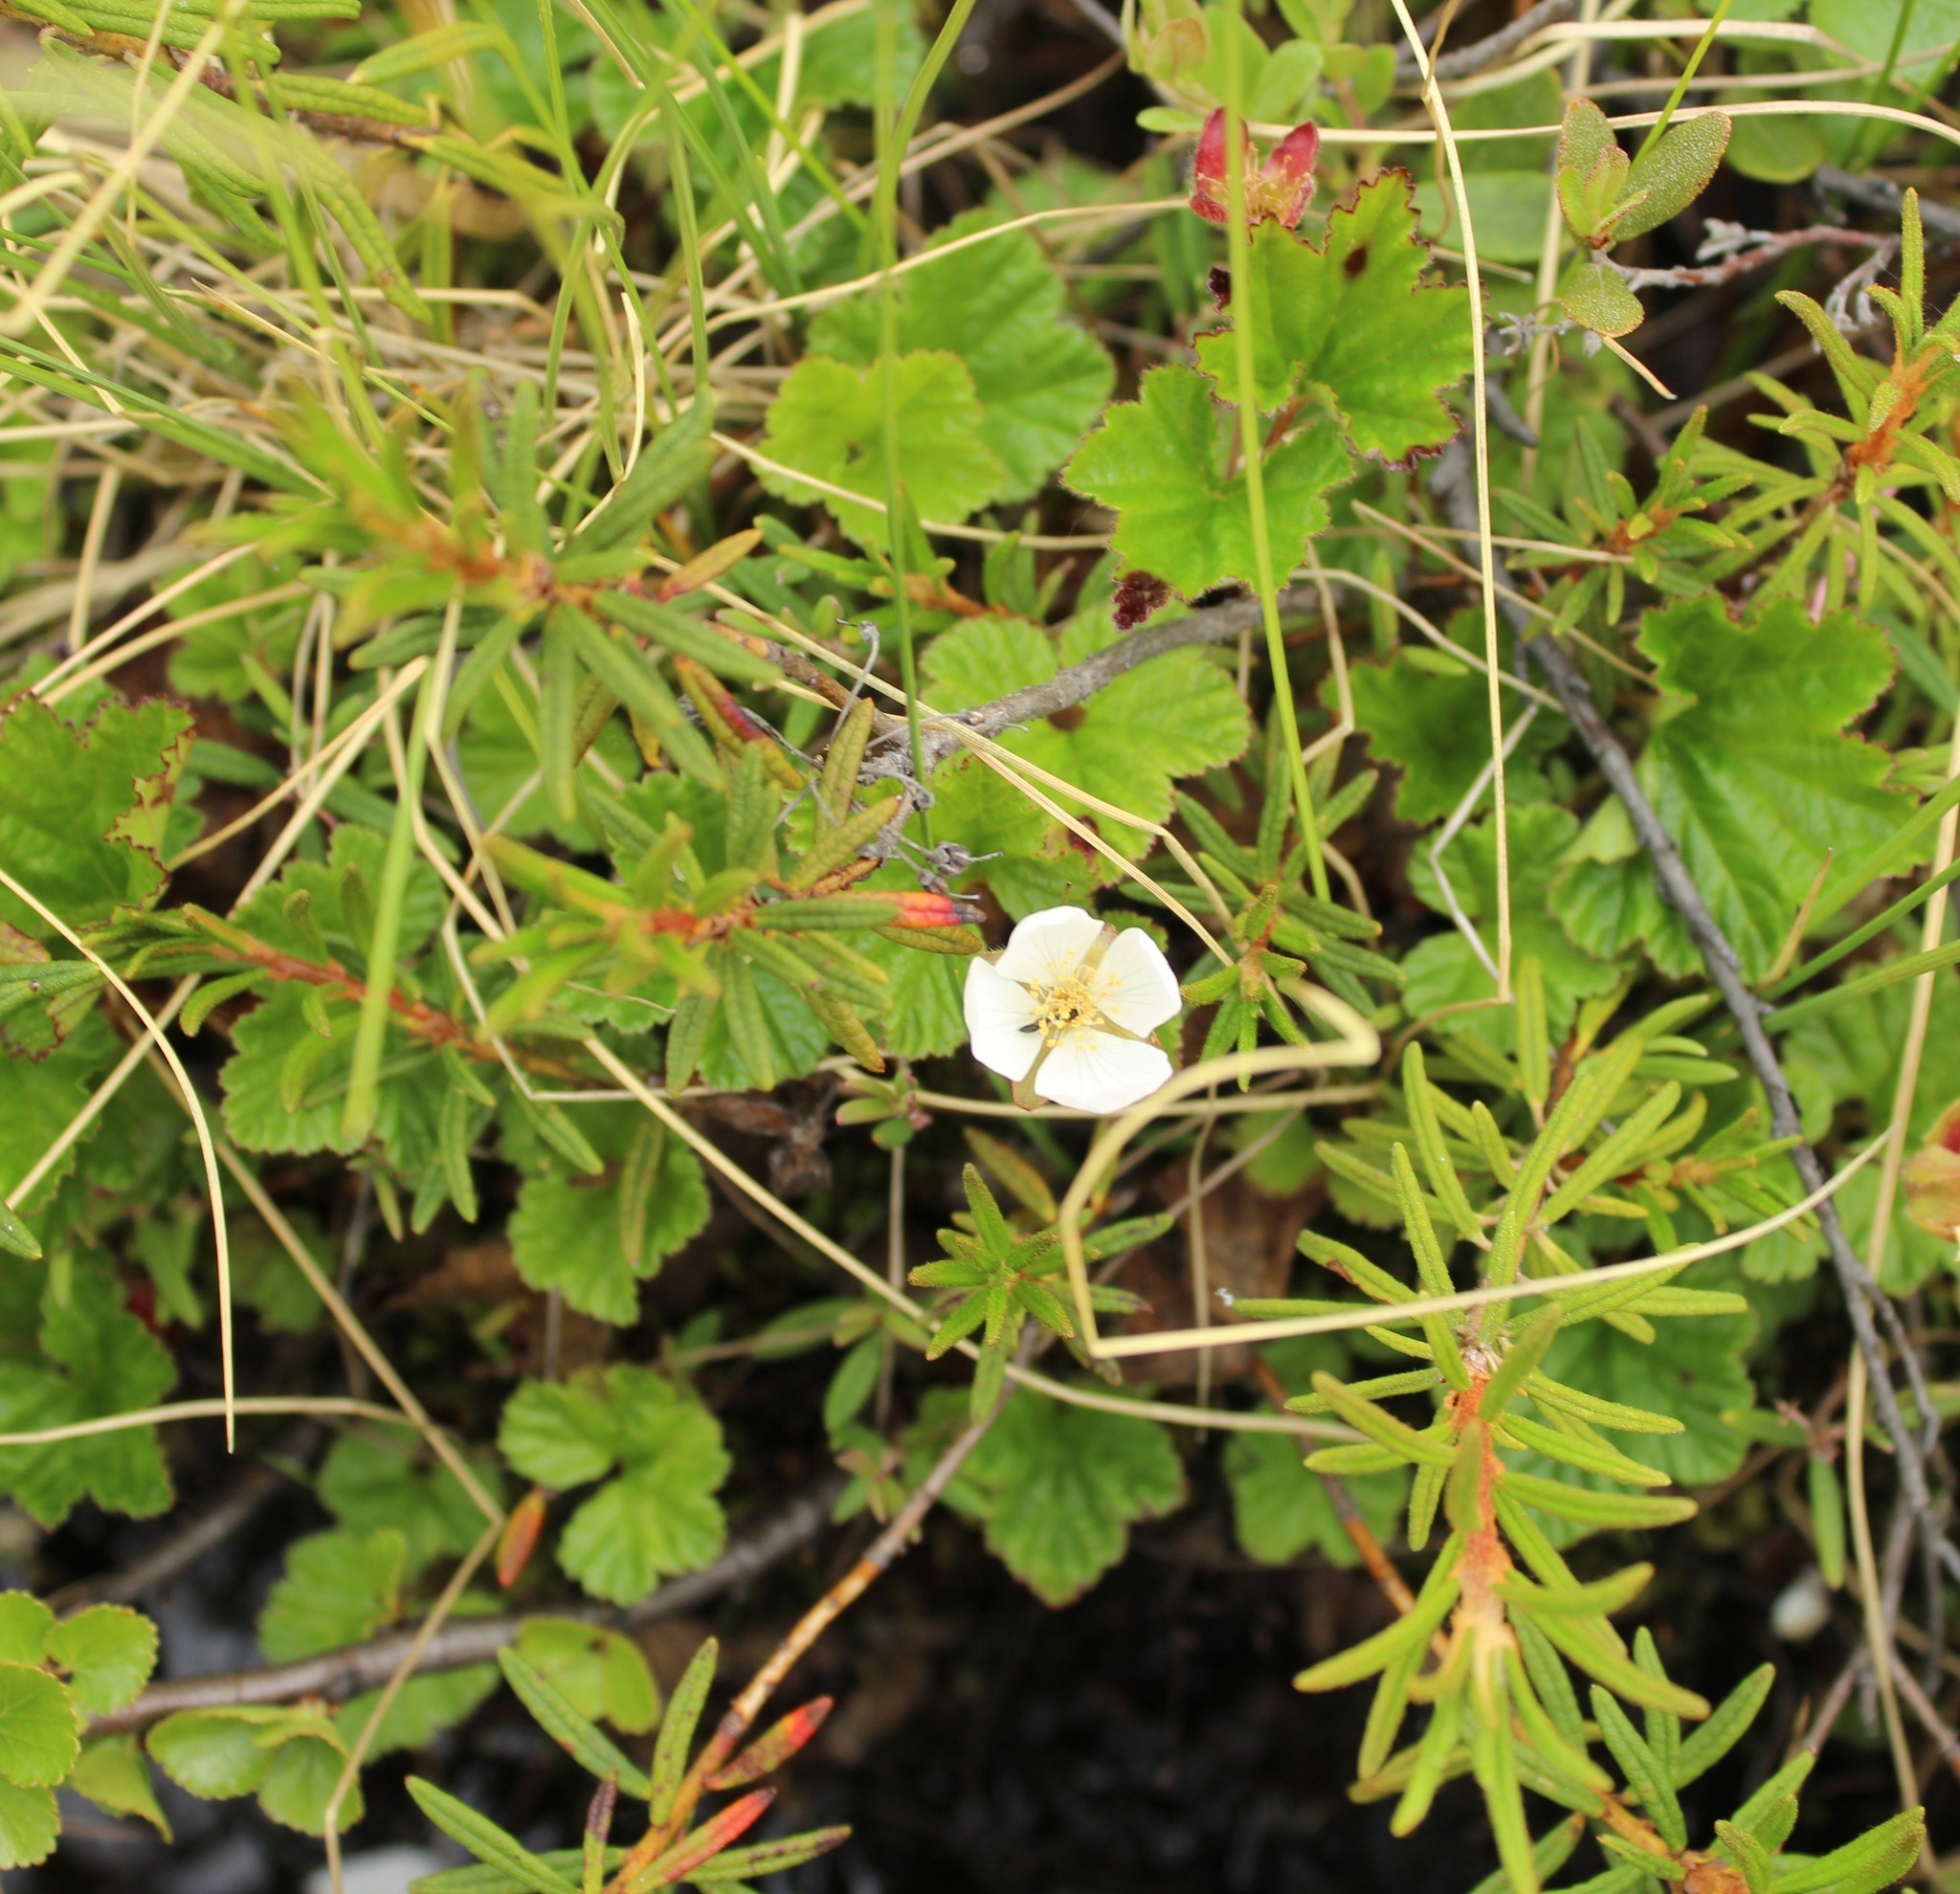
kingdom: Plantae
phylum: Tracheophyta
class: Magnoliopsida
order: Rosales
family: Rosaceae
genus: Rubus
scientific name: Rubus chamaemorus
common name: Cloudberry
